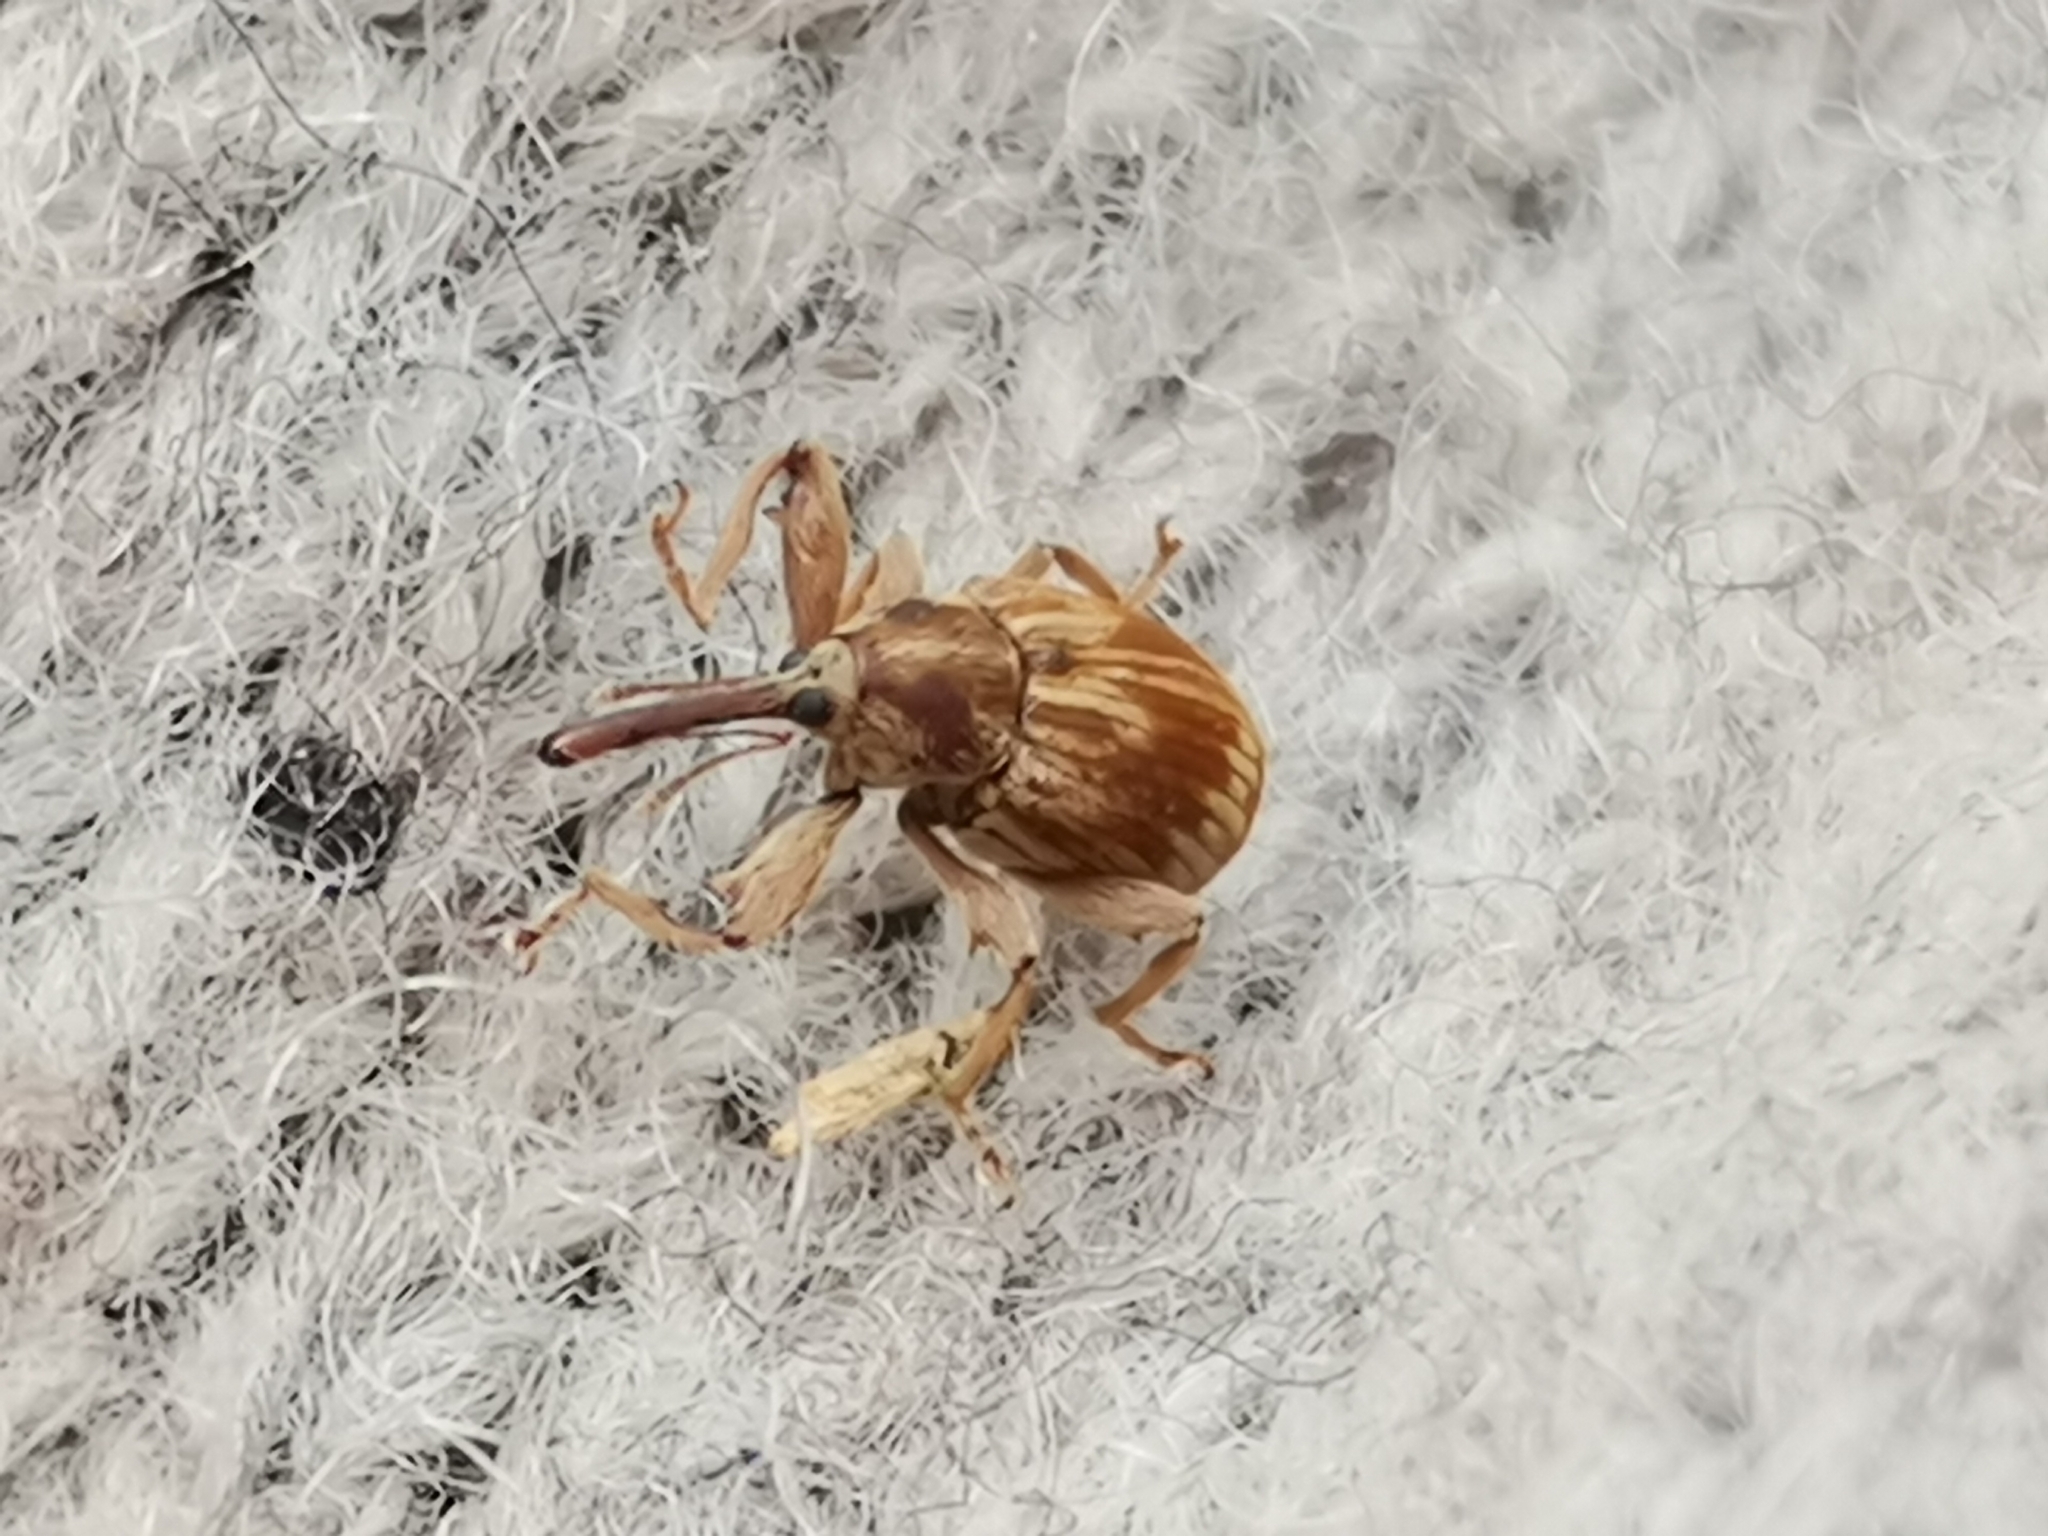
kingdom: Animalia
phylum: Arthropoda
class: Insecta
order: Coleoptera
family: Curculionidae
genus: Anthonomus
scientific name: Anthonomus rectirostris
